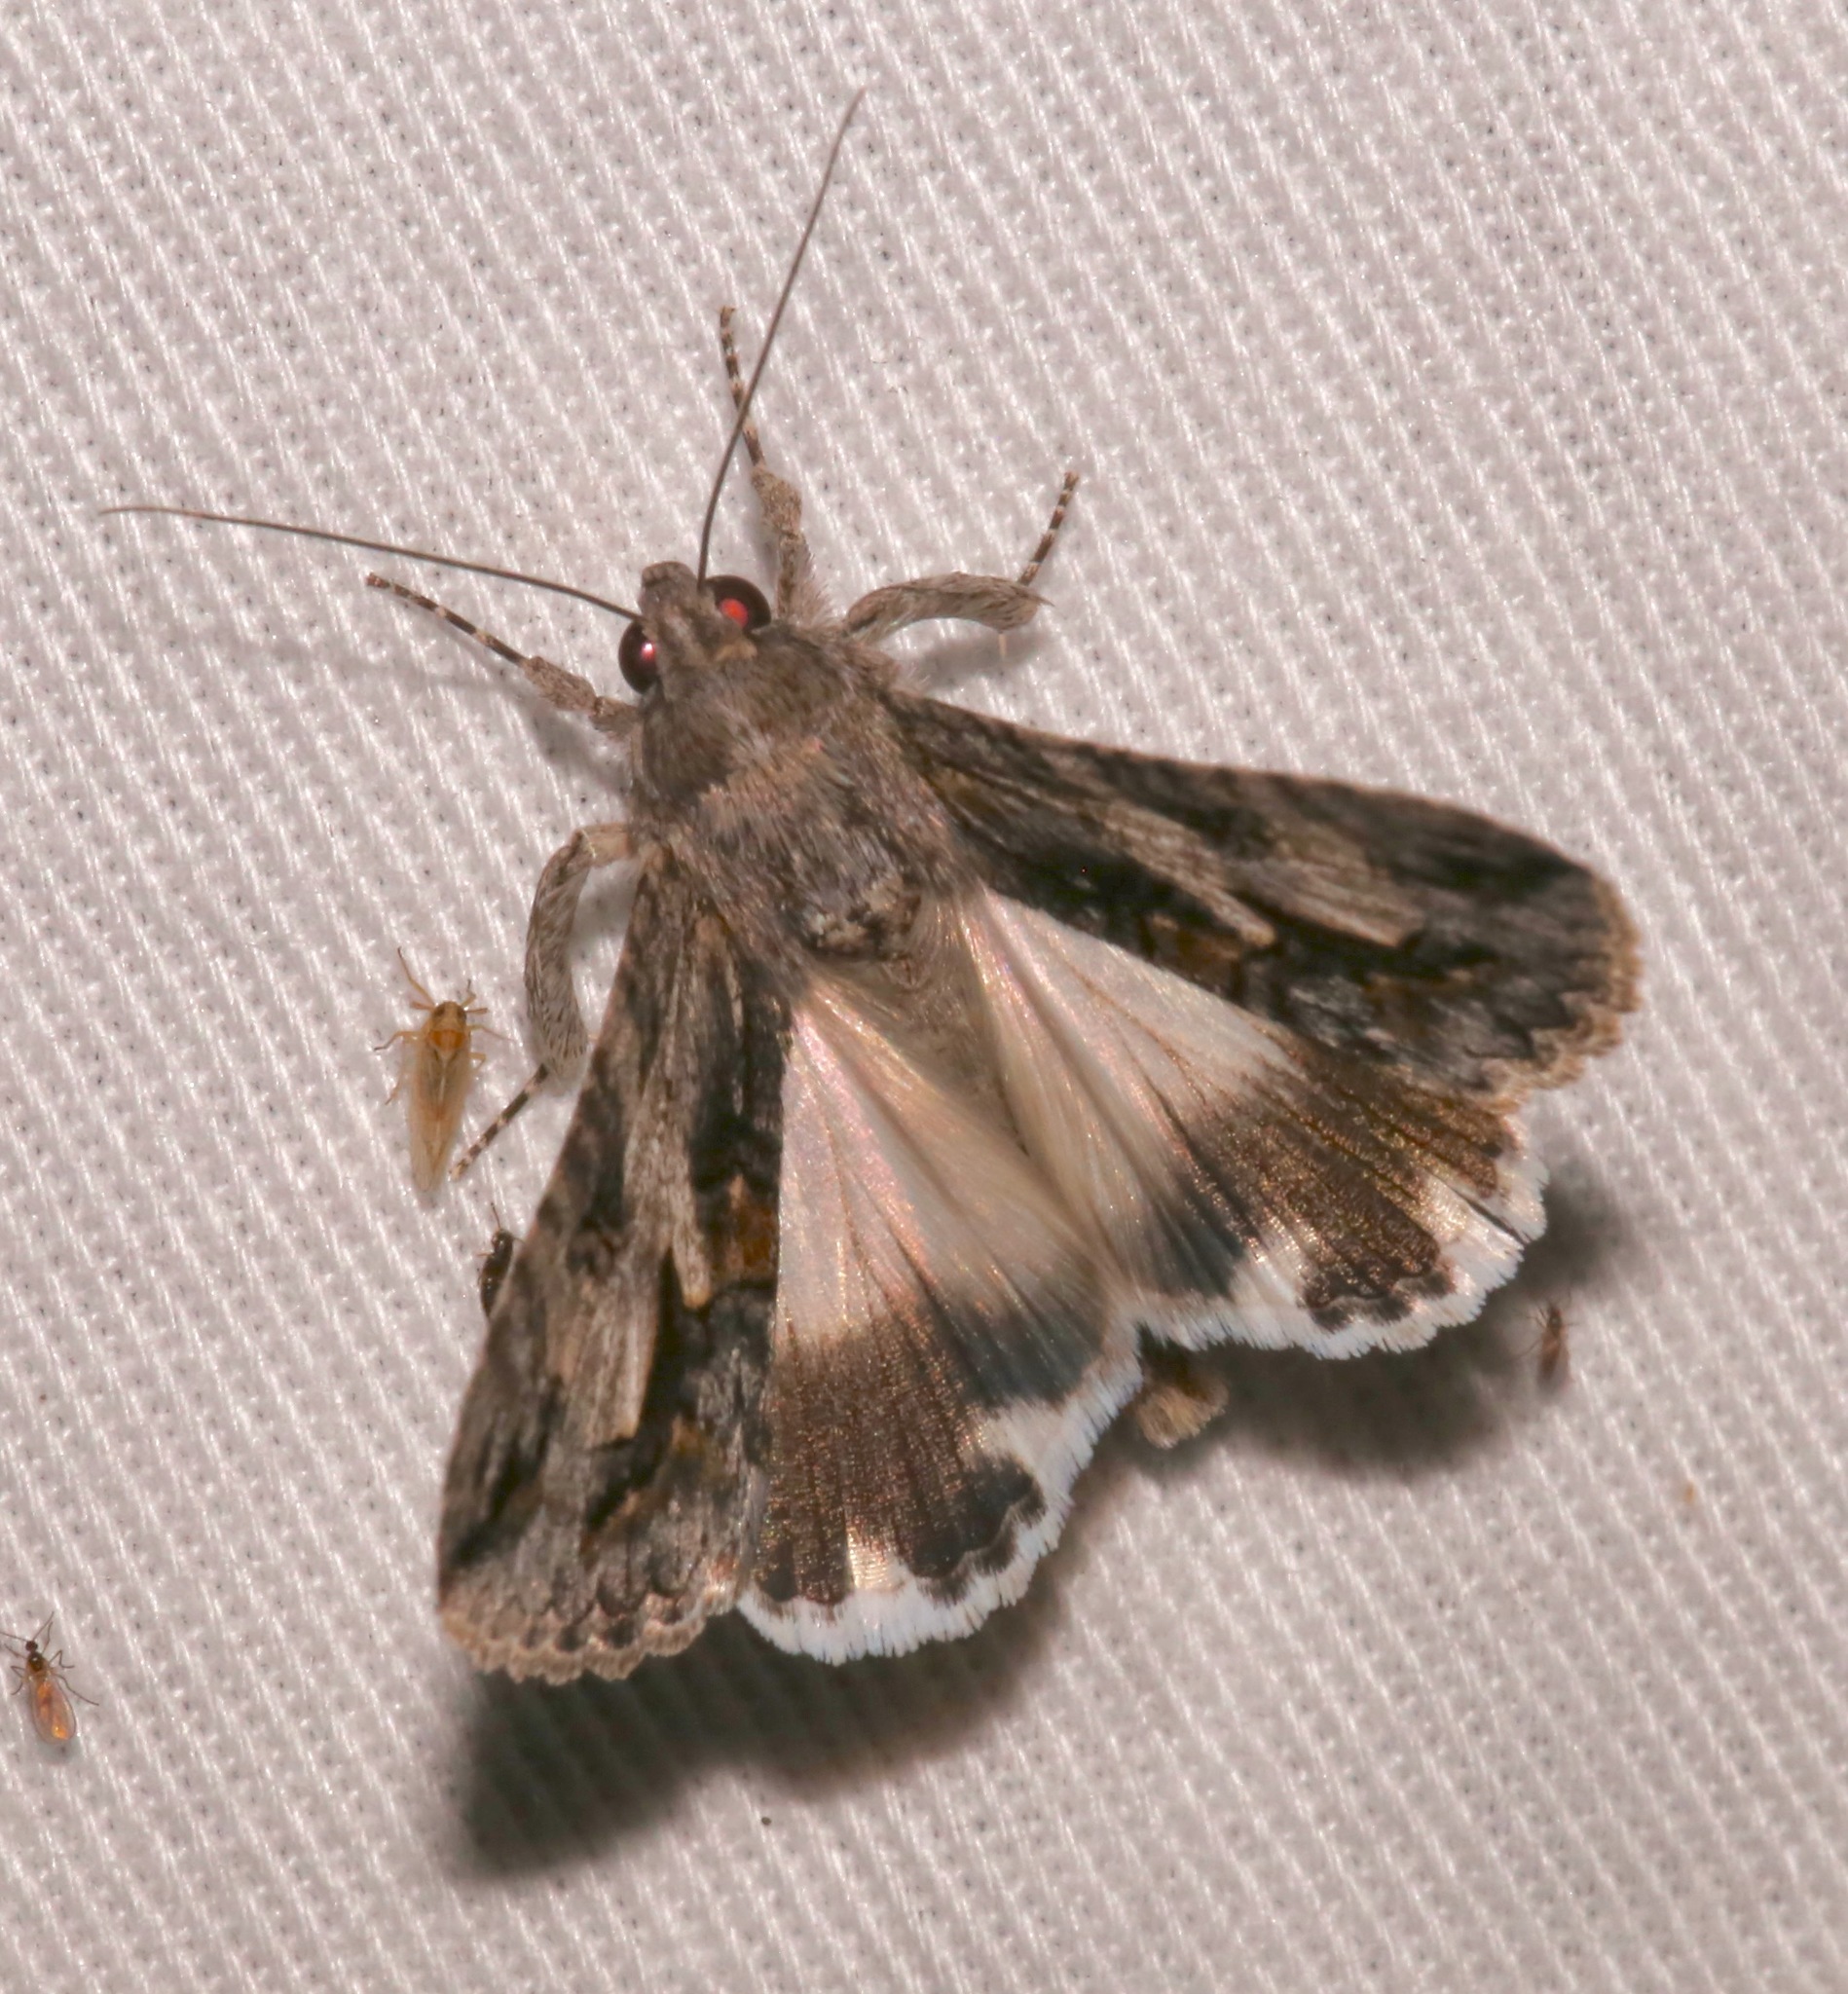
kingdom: Animalia
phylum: Arthropoda
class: Insecta
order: Lepidoptera
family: Erebidae
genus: Melipotis
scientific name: Melipotis jucunda
